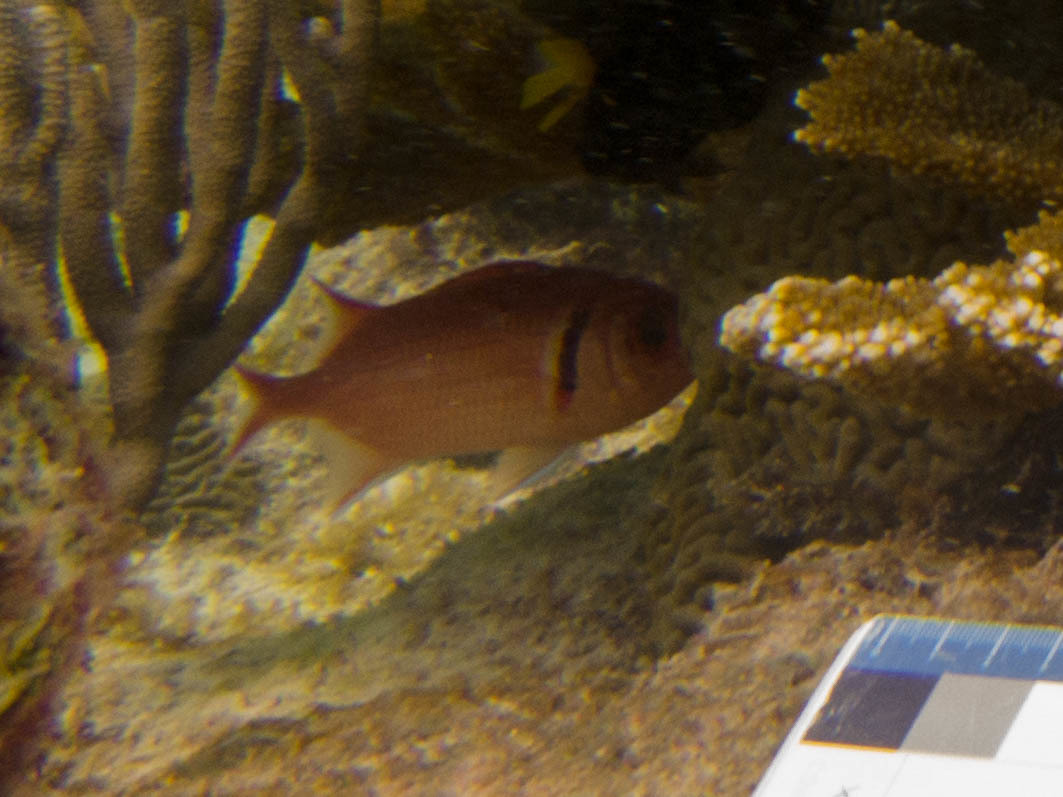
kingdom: Animalia
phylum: Chordata
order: Beryciformes
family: Holocentridae
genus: Myripristis
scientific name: Myripristis jacobus
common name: Blackbar soldierfish
